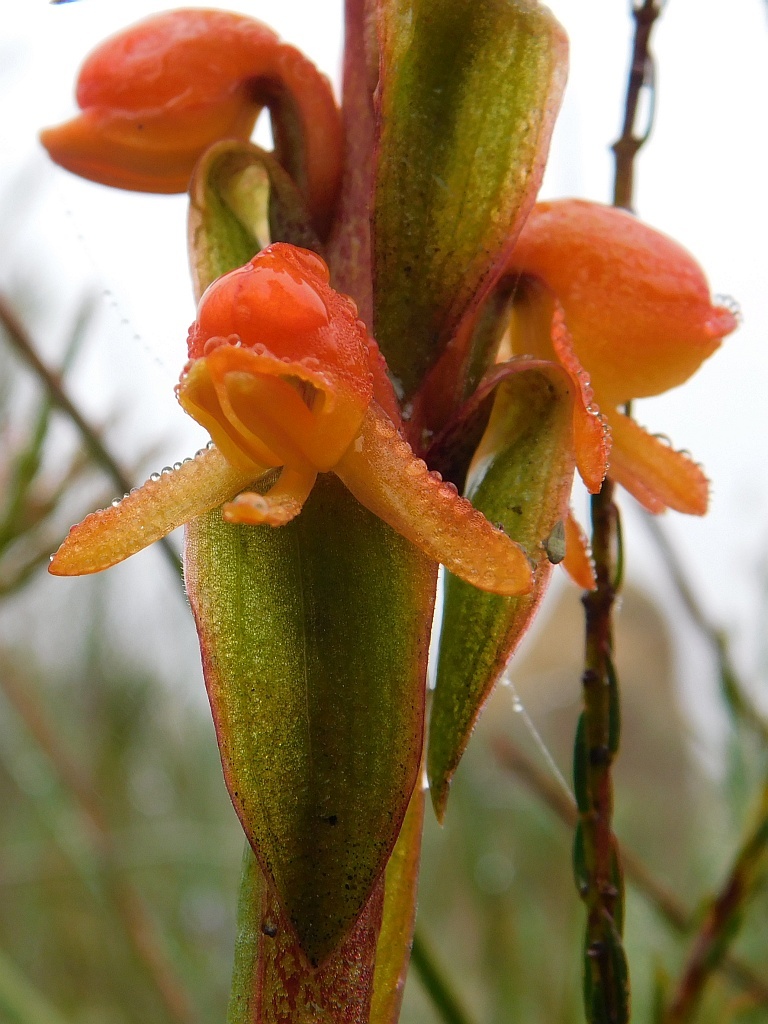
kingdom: Plantae
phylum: Tracheophyta
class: Liliopsida
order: Asparagales
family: Orchidaceae
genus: Satyrium
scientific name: Satyrium coriifolium
